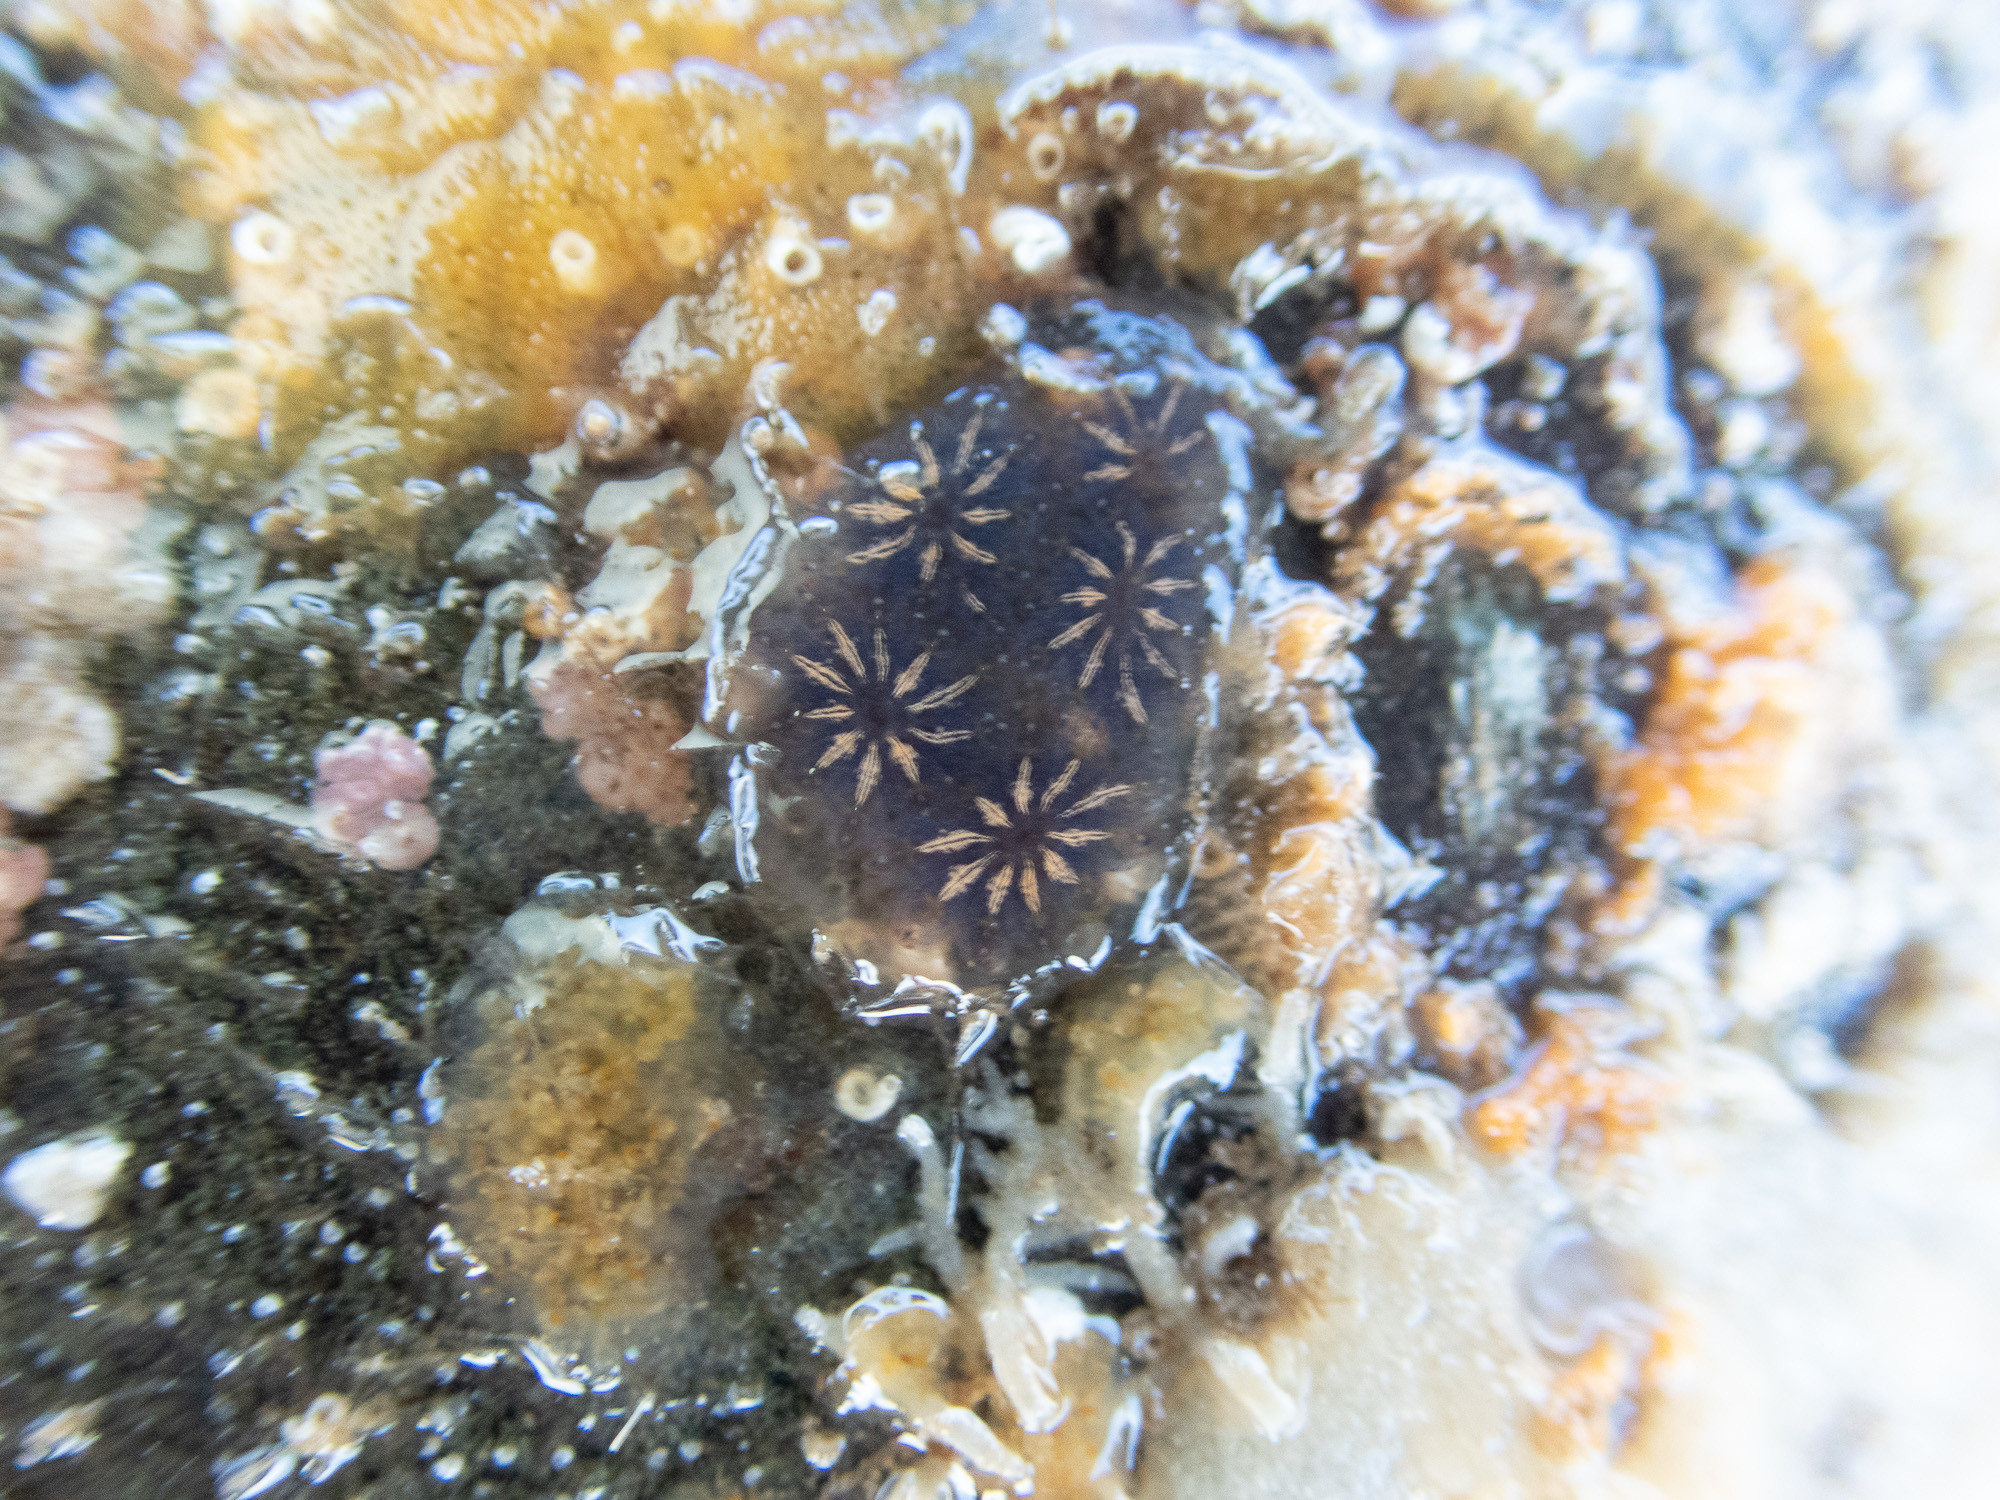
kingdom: Animalia
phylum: Chordata
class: Ascidiacea
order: Stolidobranchia
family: Styelidae
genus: Botryllus
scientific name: Botryllus schlosseri
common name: Golden star tunicate
